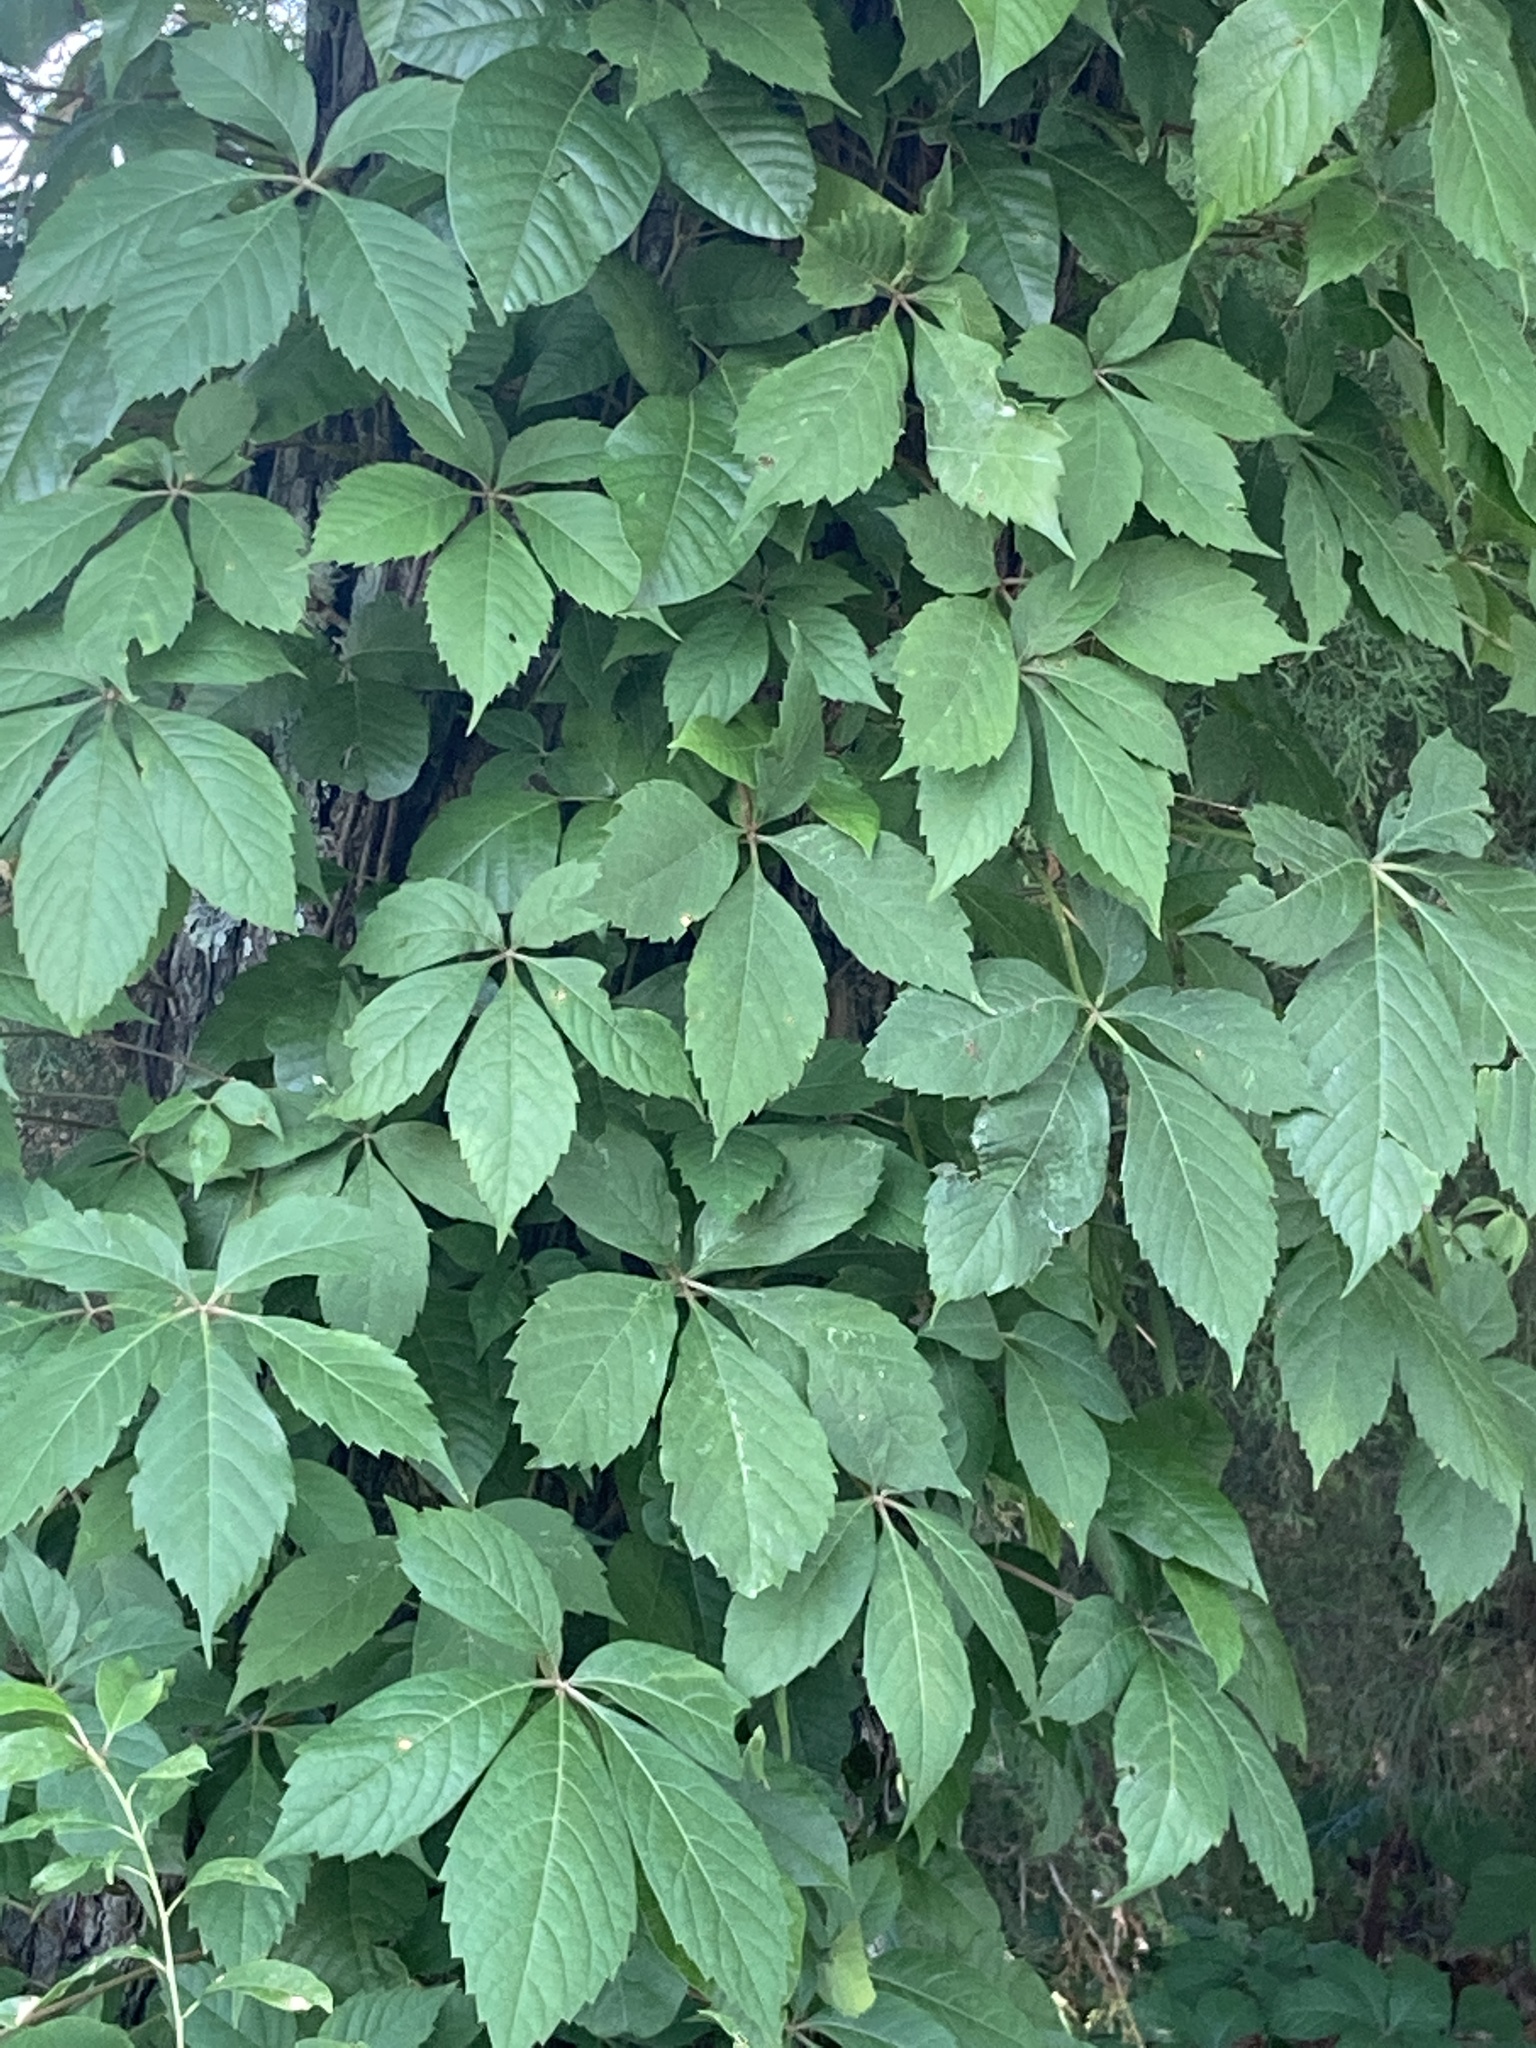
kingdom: Plantae
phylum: Tracheophyta
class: Magnoliopsida
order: Vitales
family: Vitaceae
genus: Parthenocissus
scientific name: Parthenocissus quinquefolia
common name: Virginia-creeper
